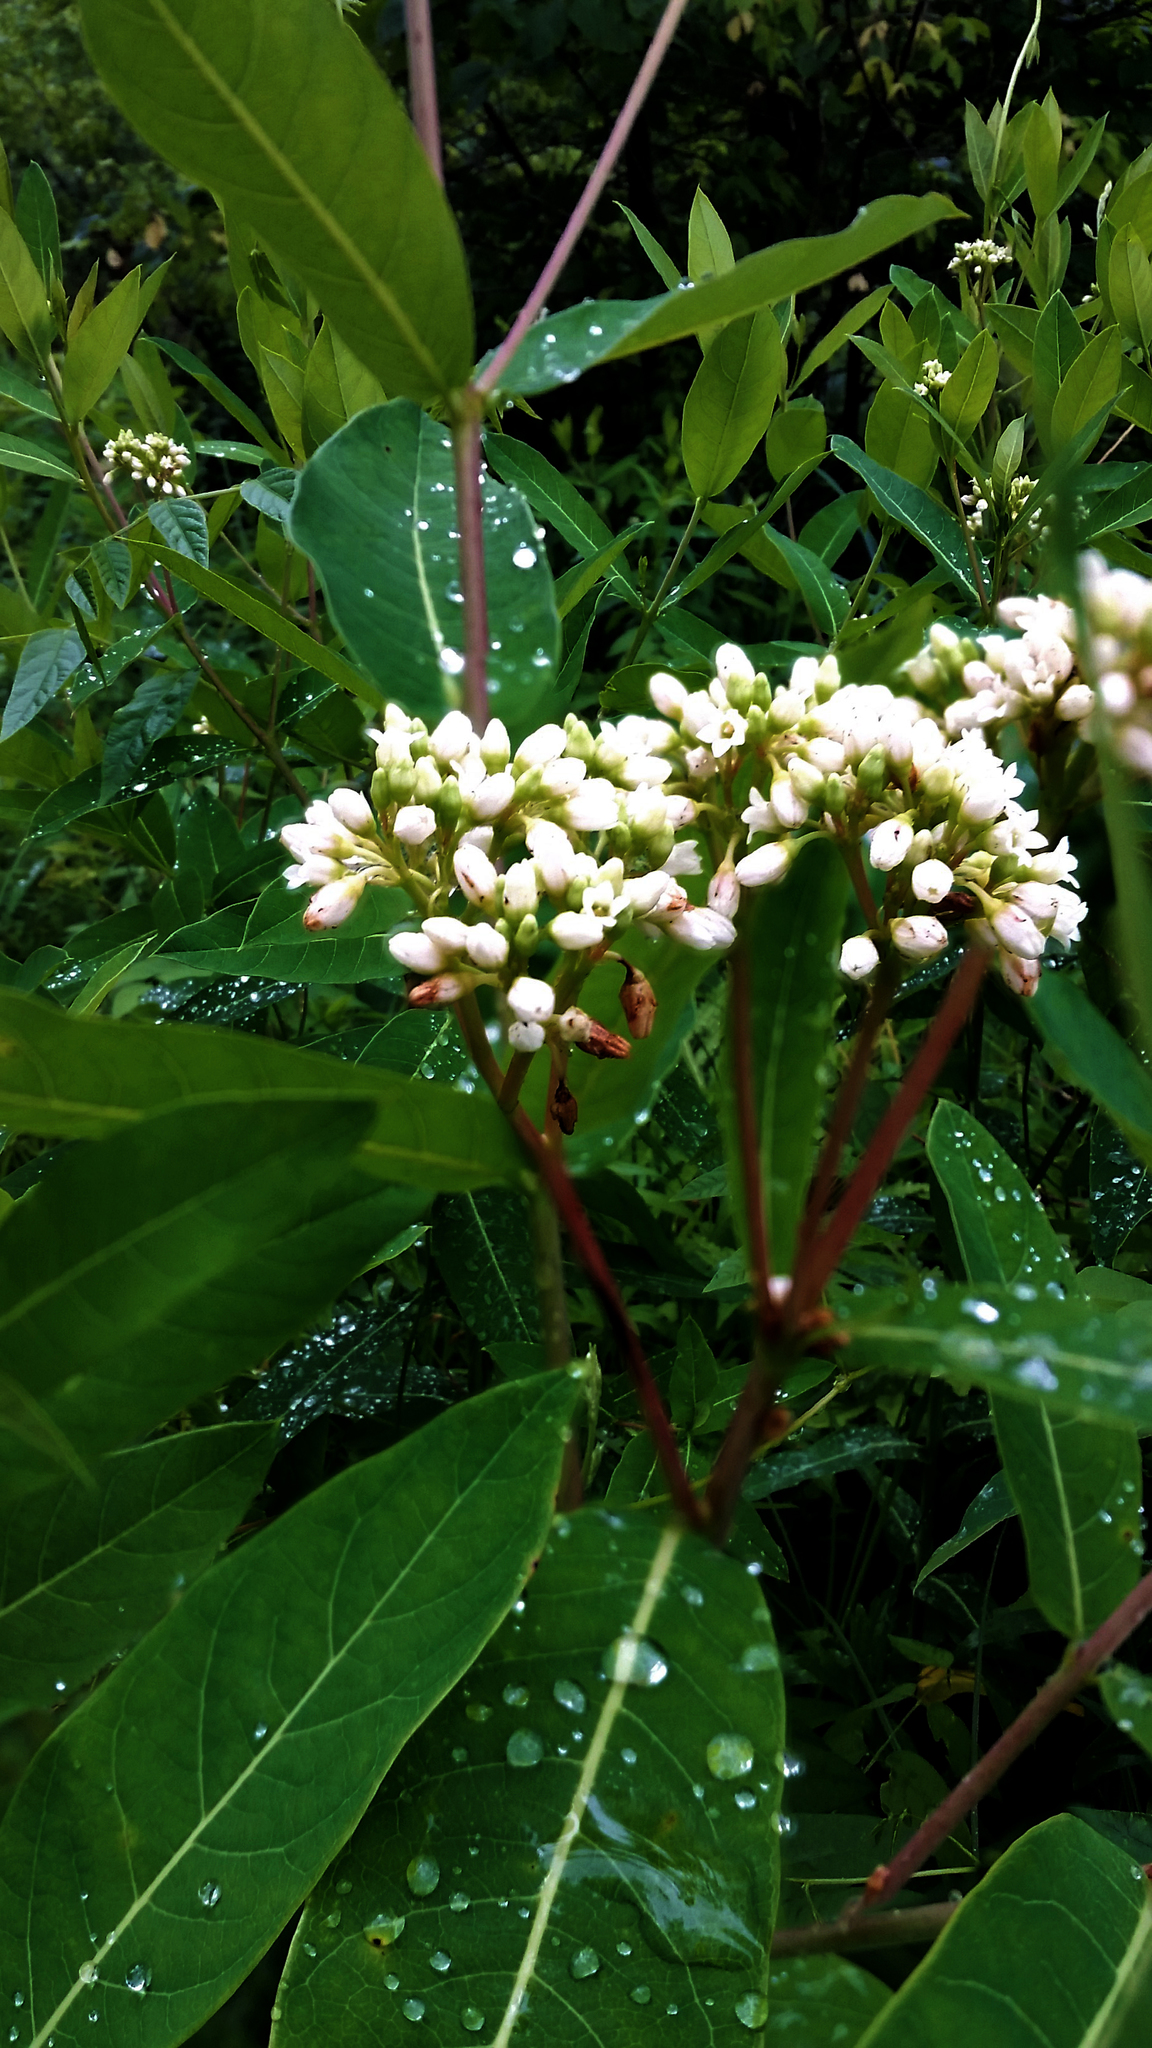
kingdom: Plantae
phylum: Tracheophyta
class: Magnoliopsida
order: Gentianales
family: Apocynaceae
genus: Apocynum
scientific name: Apocynum cannabinum
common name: Hemp dogbane
